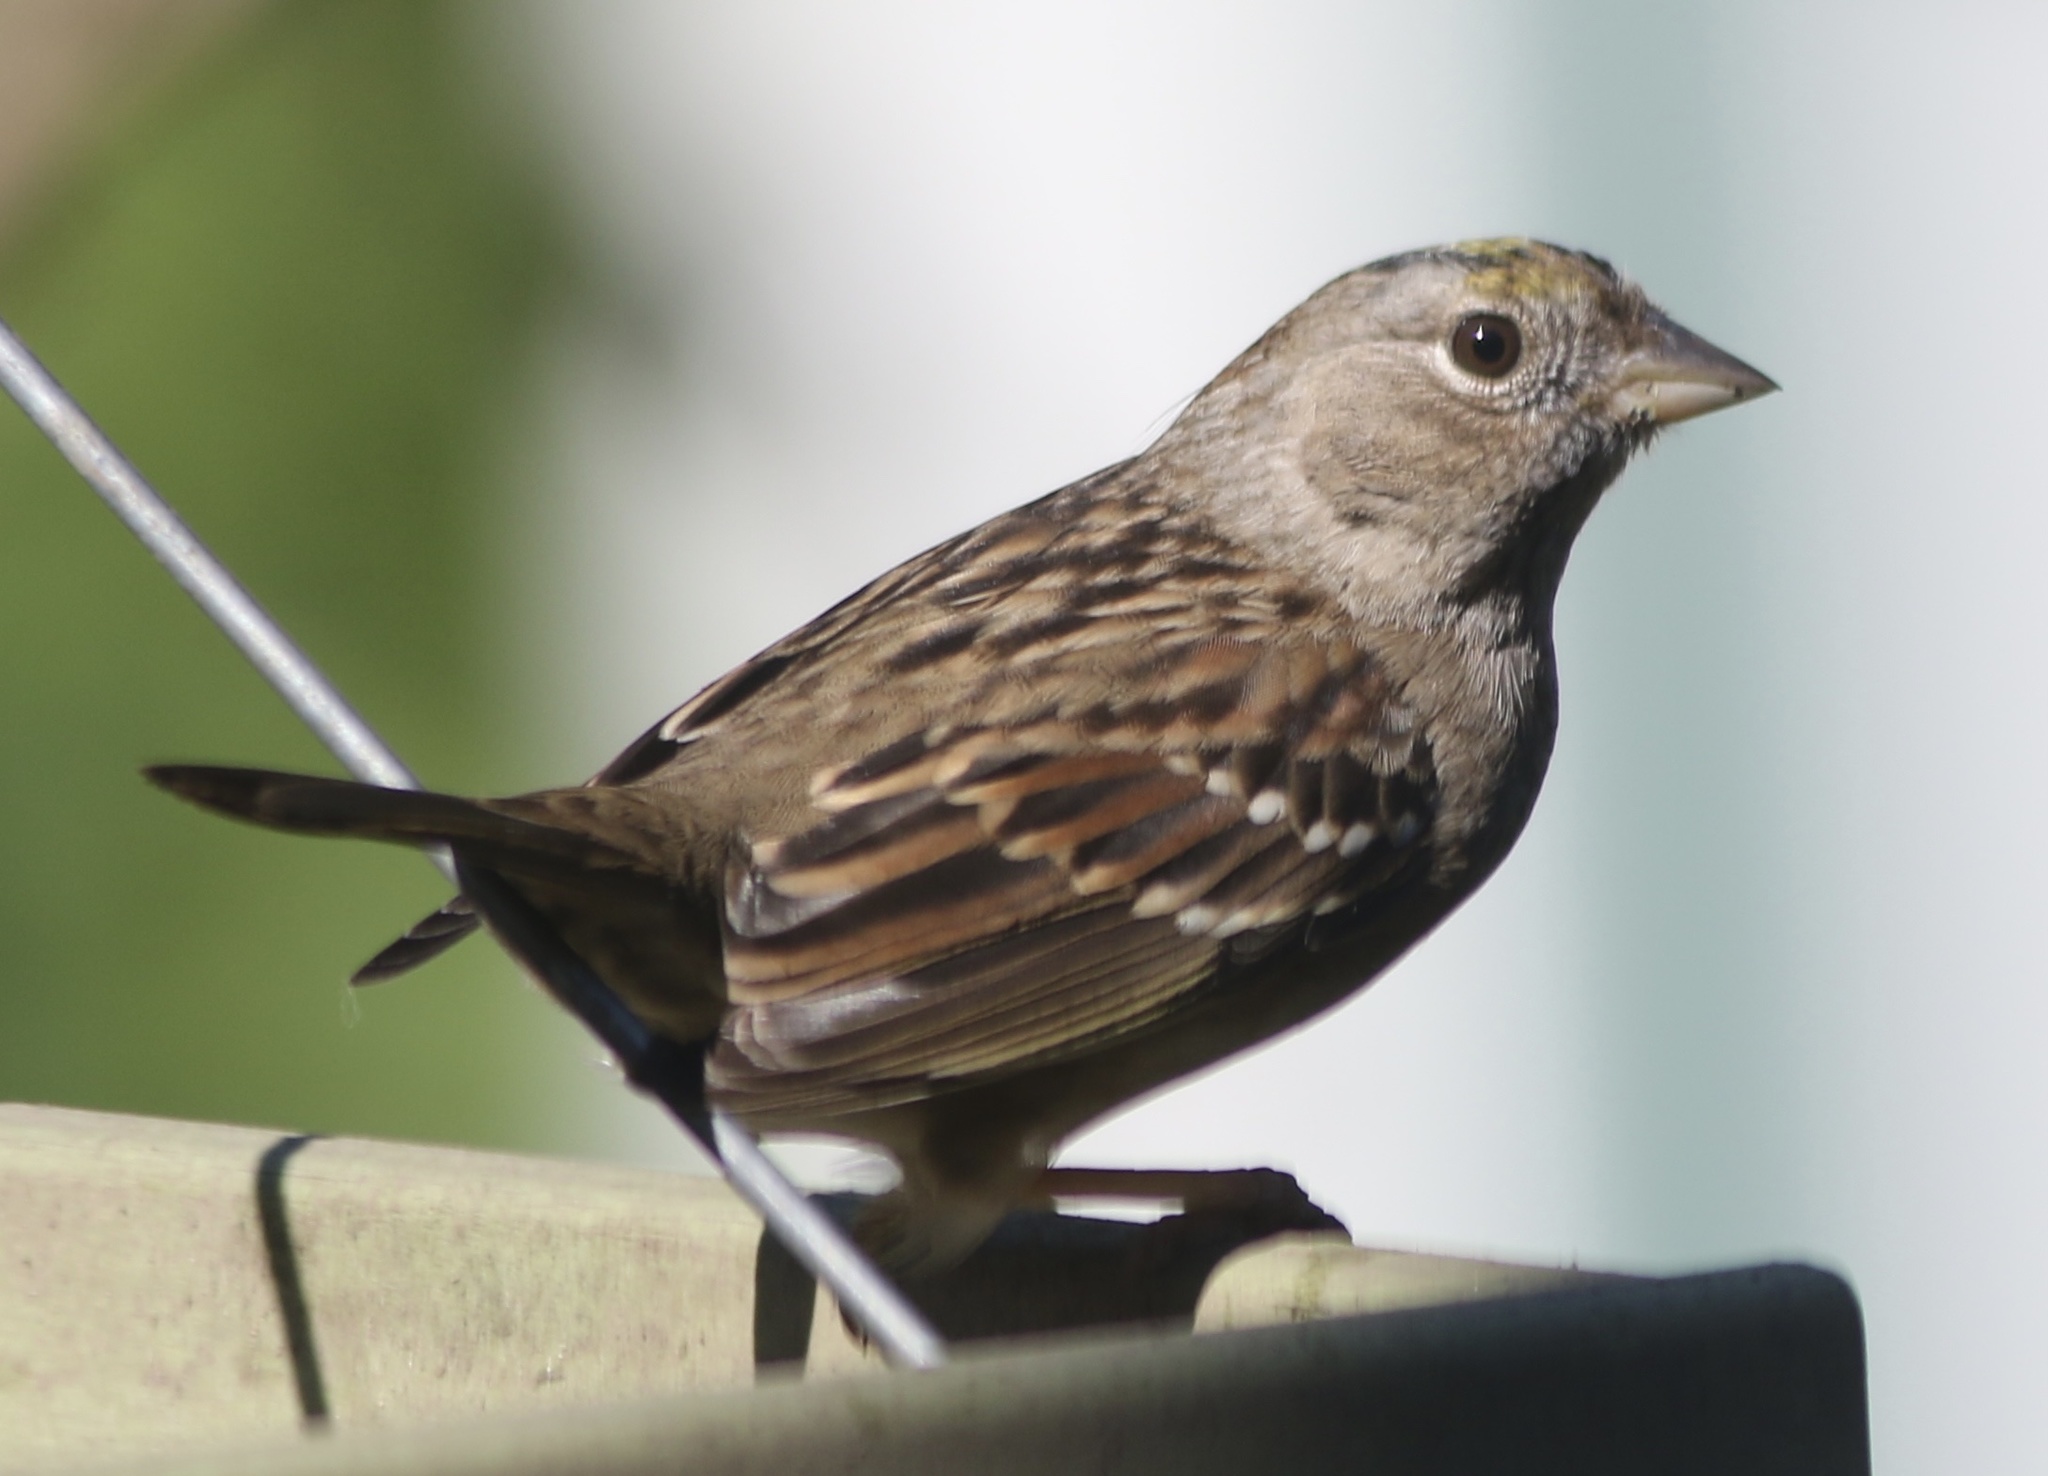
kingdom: Animalia
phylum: Chordata
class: Aves
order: Passeriformes
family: Passerellidae
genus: Zonotrichia
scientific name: Zonotrichia atricapilla
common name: Golden-crowned sparrow
